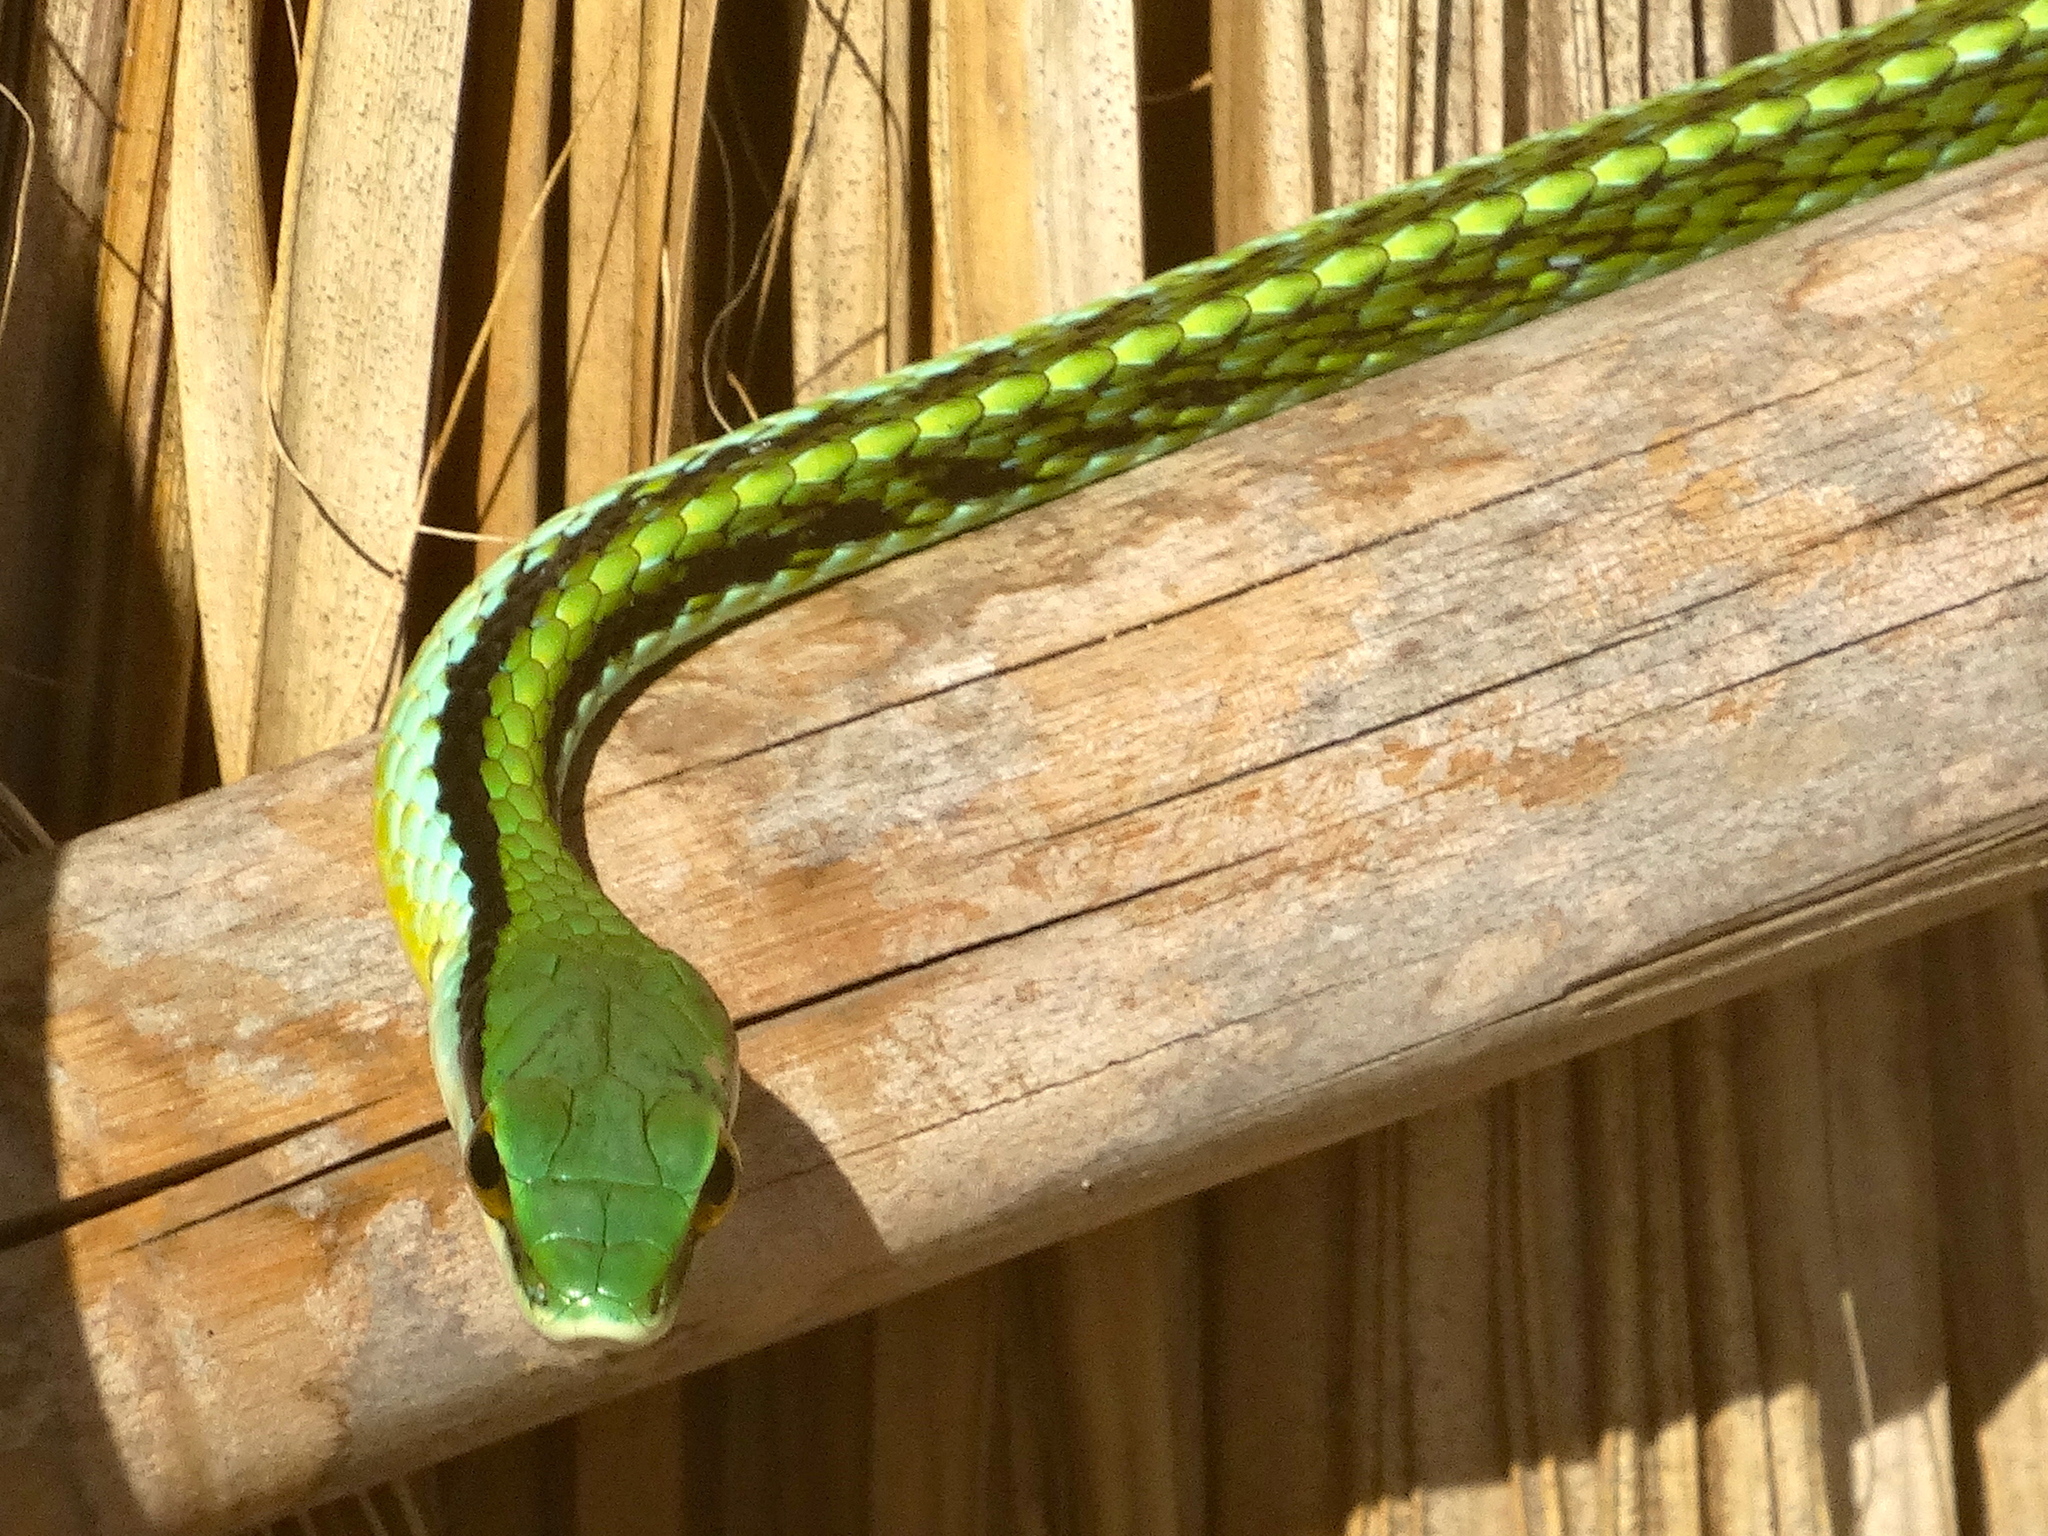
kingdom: Animalia
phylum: Chordata
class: Squamata
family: Colubridae
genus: Leptophis
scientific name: Leptophis diplotropis
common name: Pacific coast parrot snake
